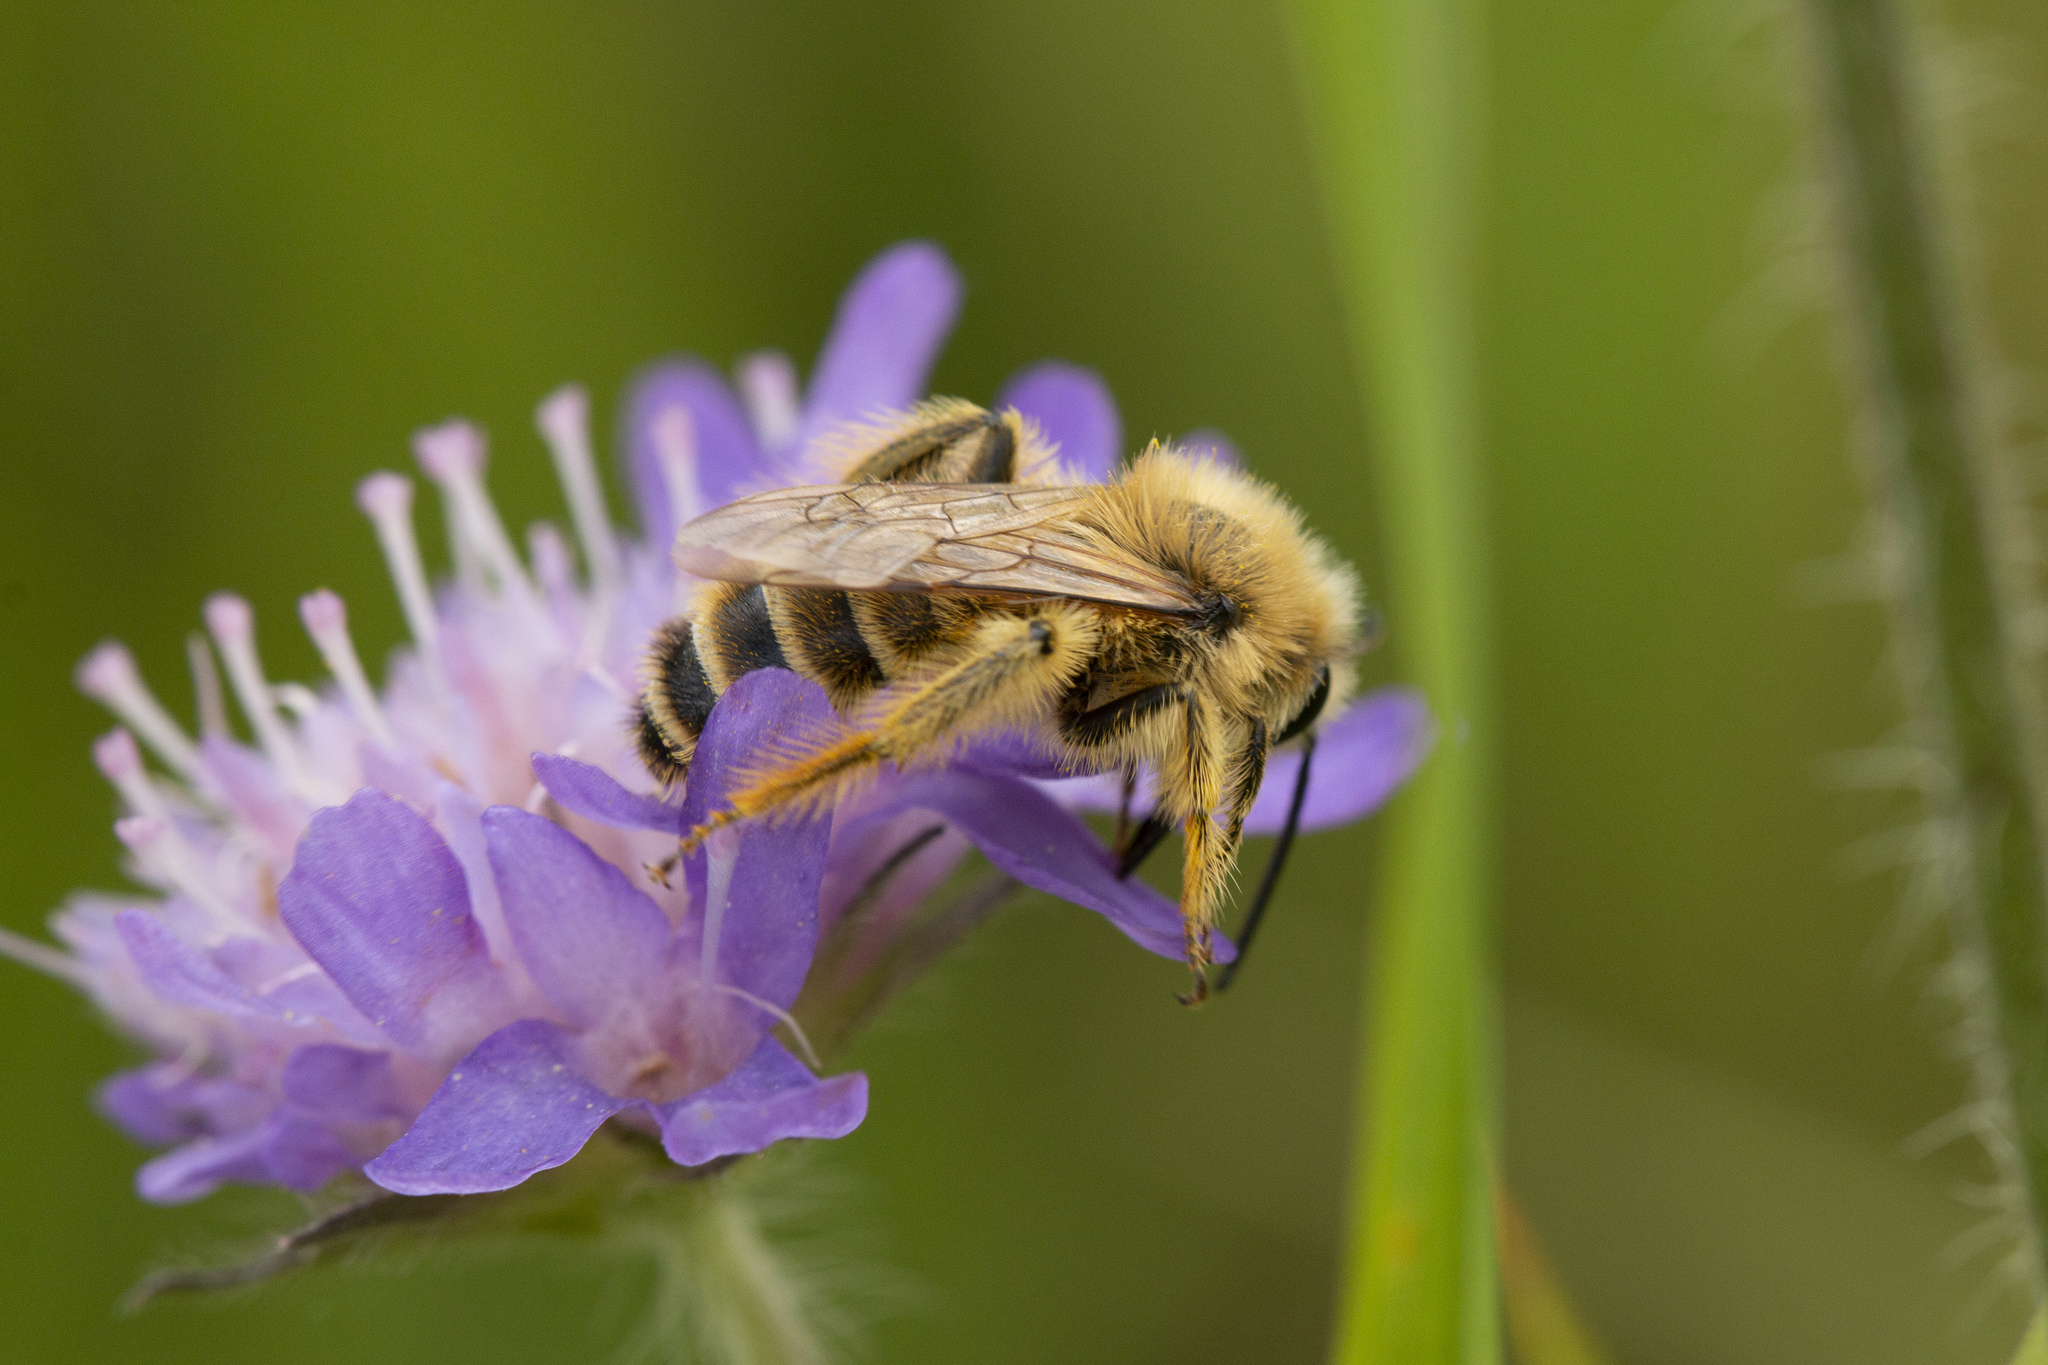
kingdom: Animalia
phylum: Arthropoda
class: Insecta
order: Hymenoptera
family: Melittidae
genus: Dasypoda
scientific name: Dasypoda hirtipes
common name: Pantaloon bee
